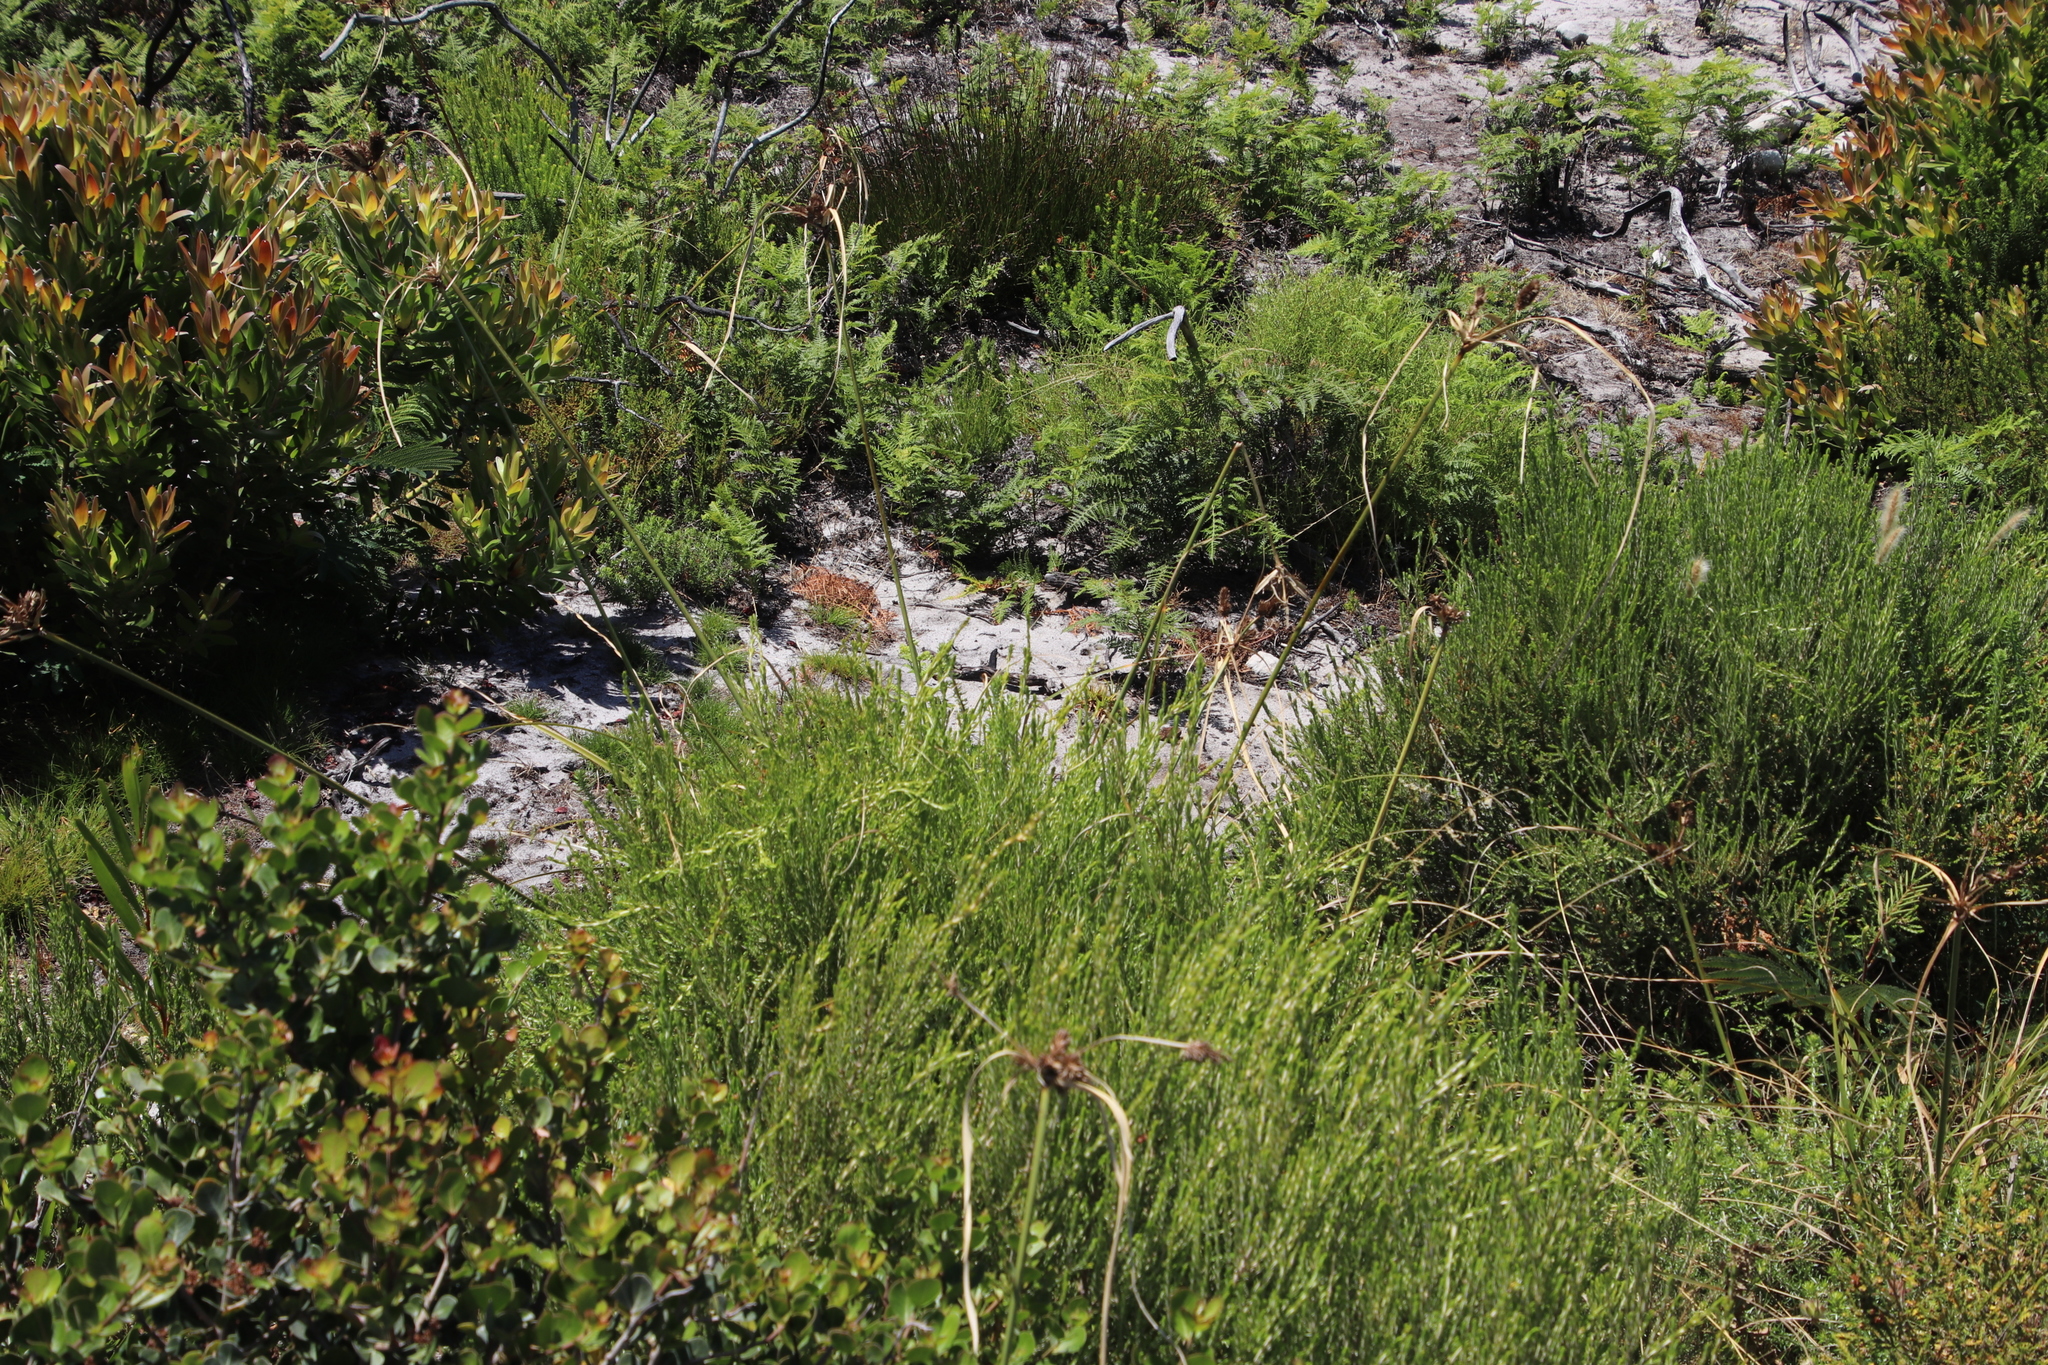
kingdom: Plantae
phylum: Tracheophyta
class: Liliopsida
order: Poales
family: Cyperaceae
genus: Cyperus
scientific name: Cyperus thunbergii
